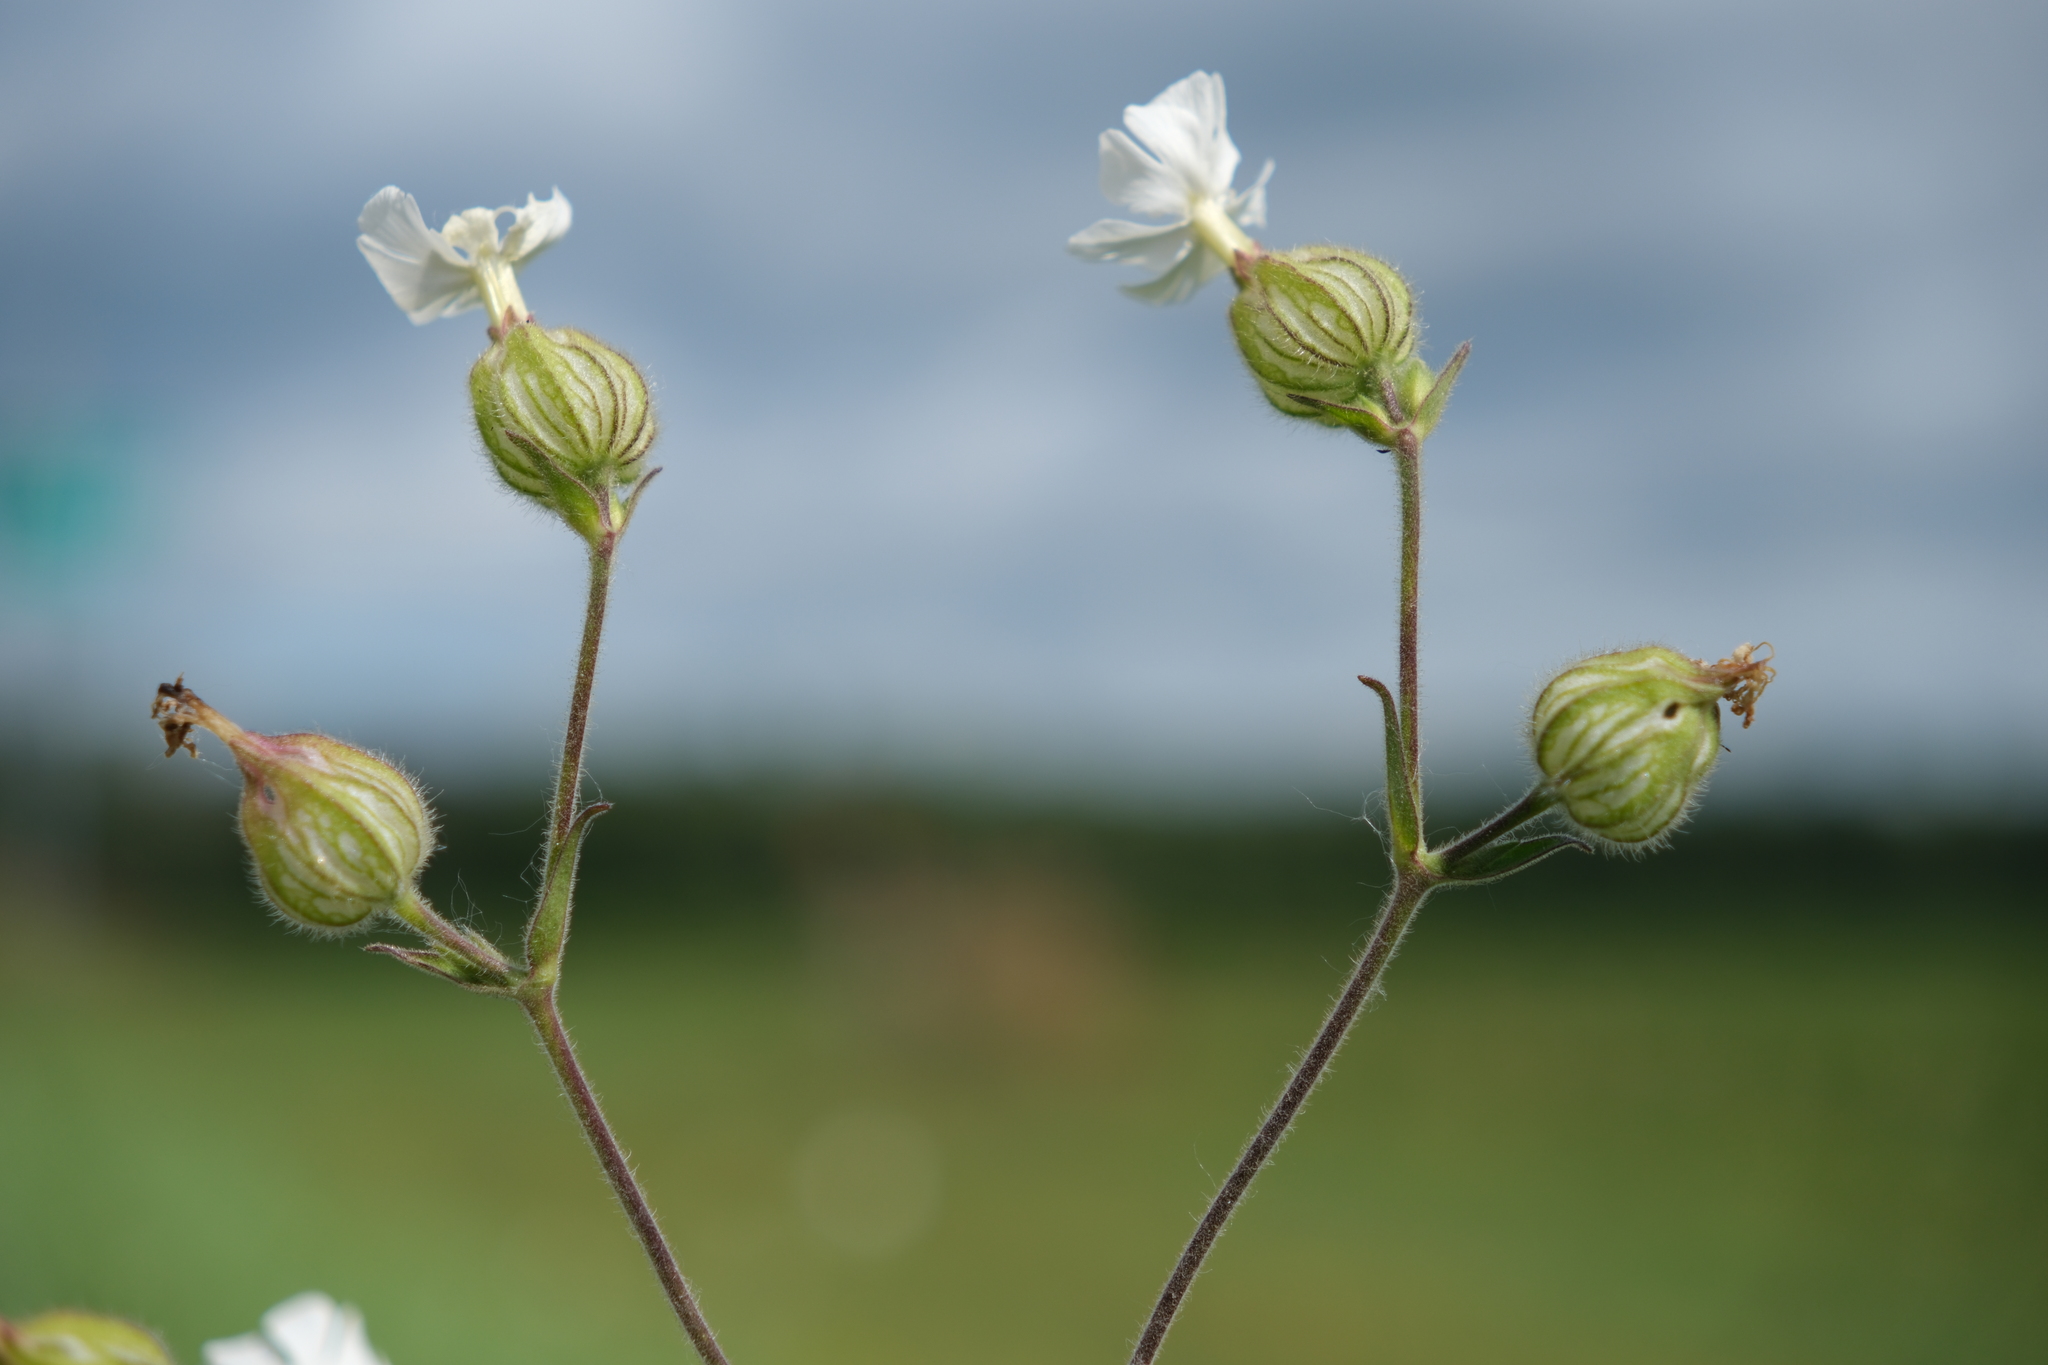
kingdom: Plantae
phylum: Tracheophyta
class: Magnoliopsida
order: Caryophyllales
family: Caryophyllaceae
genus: Silene
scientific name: Silene latifolia
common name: White campion
